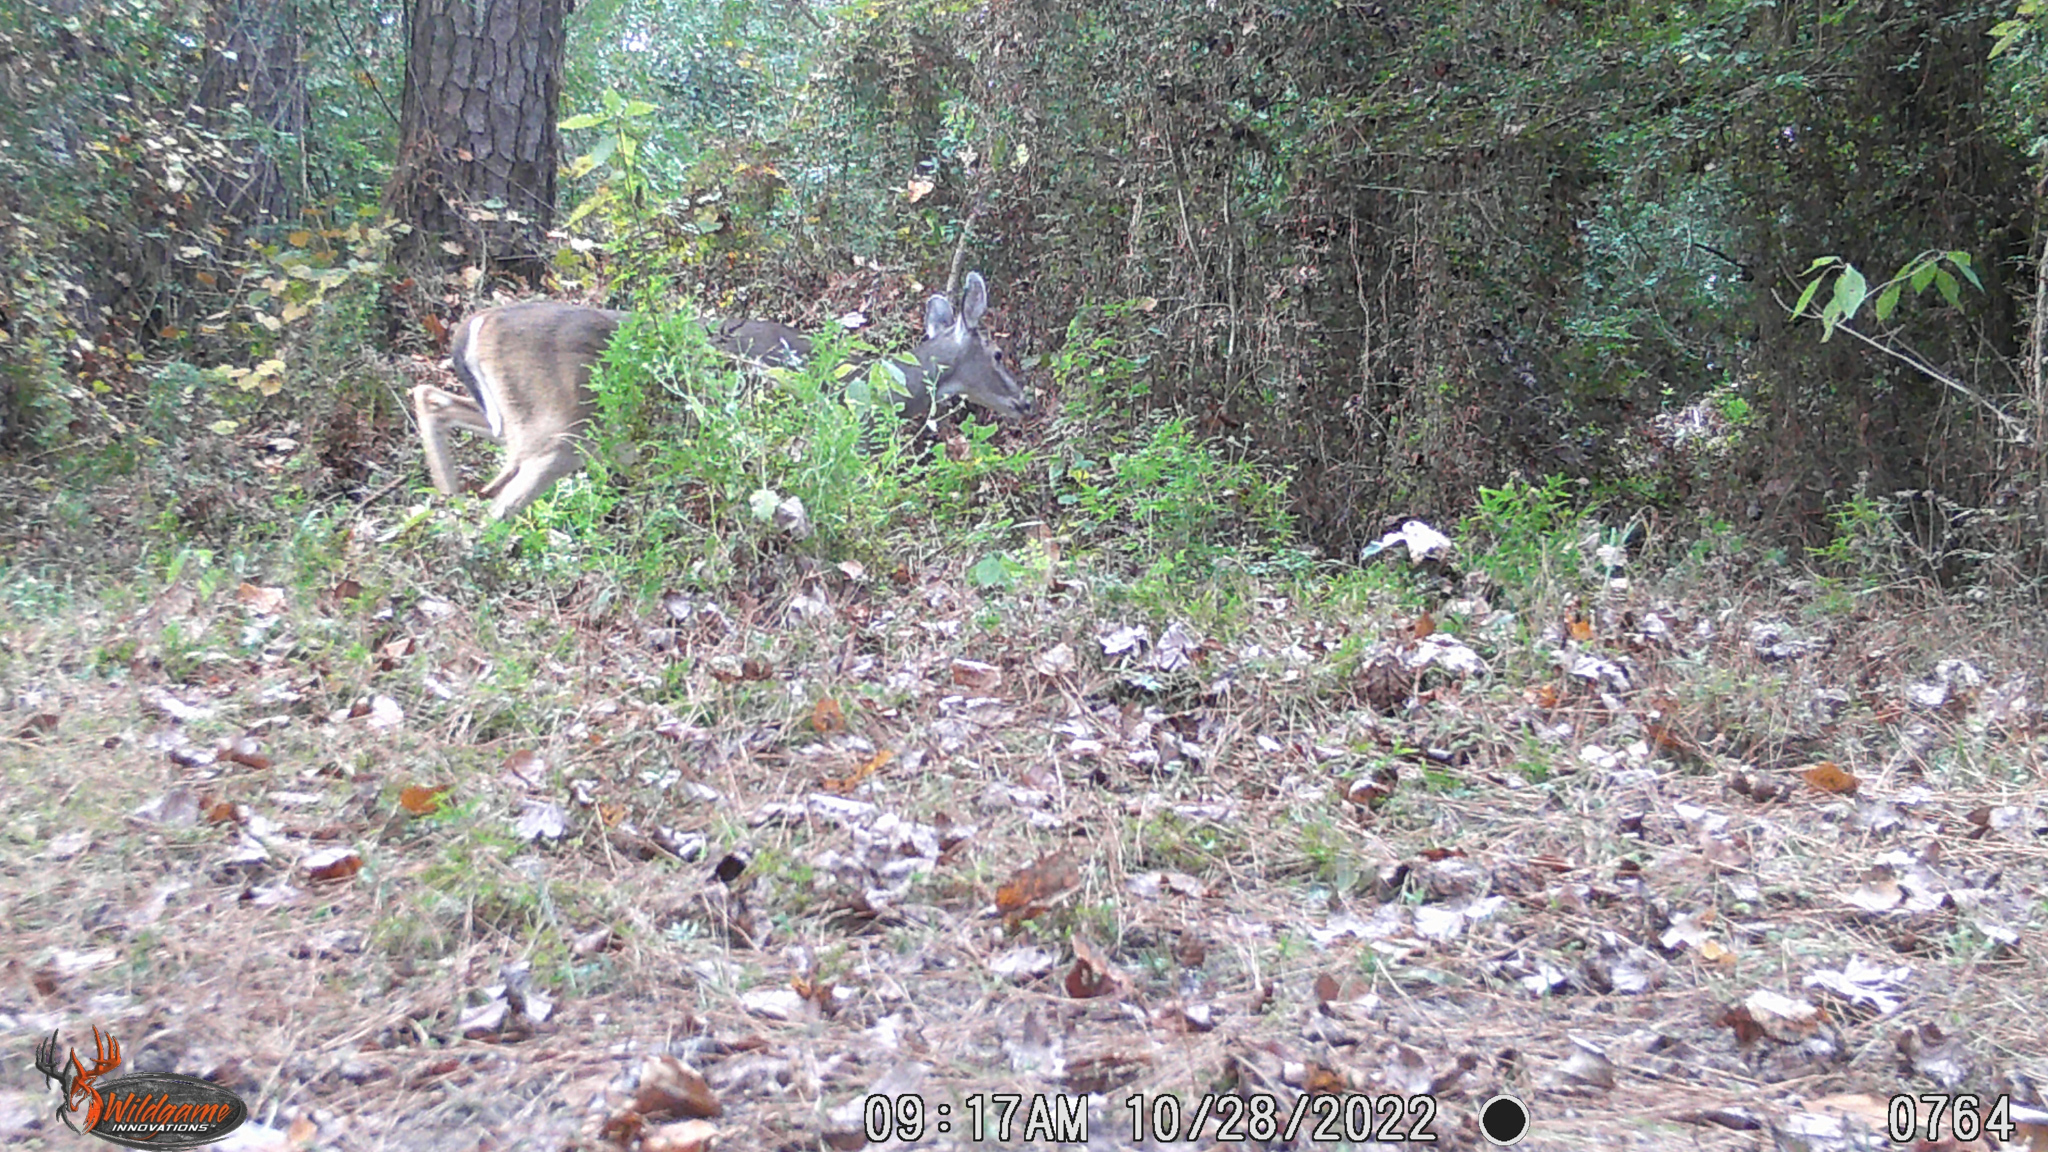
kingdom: Animalia
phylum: Chordata
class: Mammalia
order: Artiodactyla
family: Cervidae
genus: Odocoileus
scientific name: Odocoileus virginianus
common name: White-tailed deer
